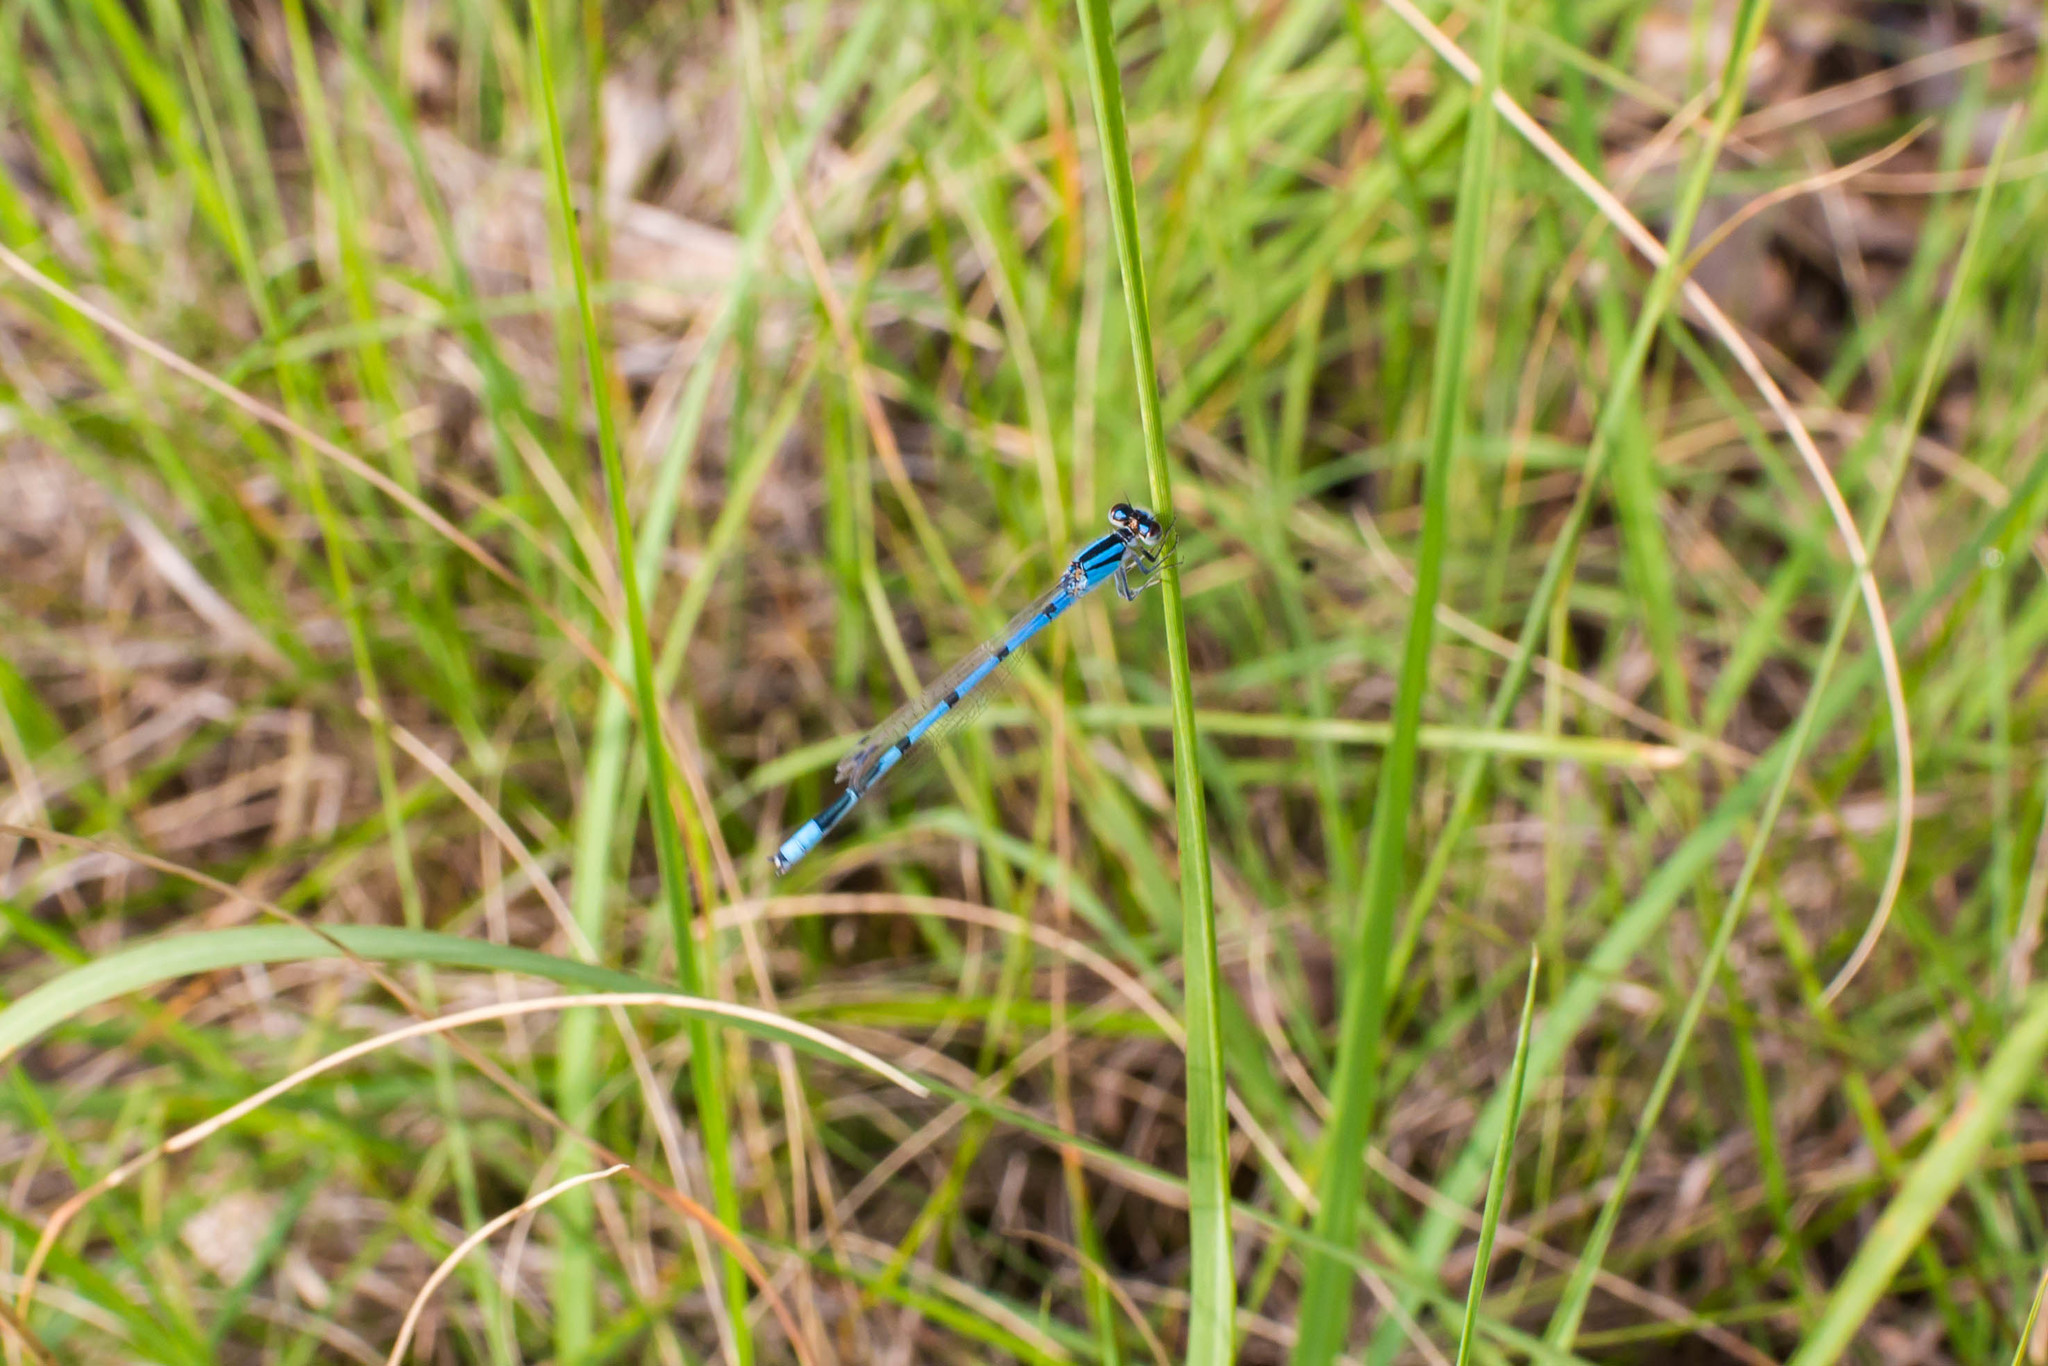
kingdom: Animalia
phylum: Arthropoda
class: Insecta
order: Odonata
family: Coenagrionidae
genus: Enallagma
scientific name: Enallagma civile
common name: Damselfly
